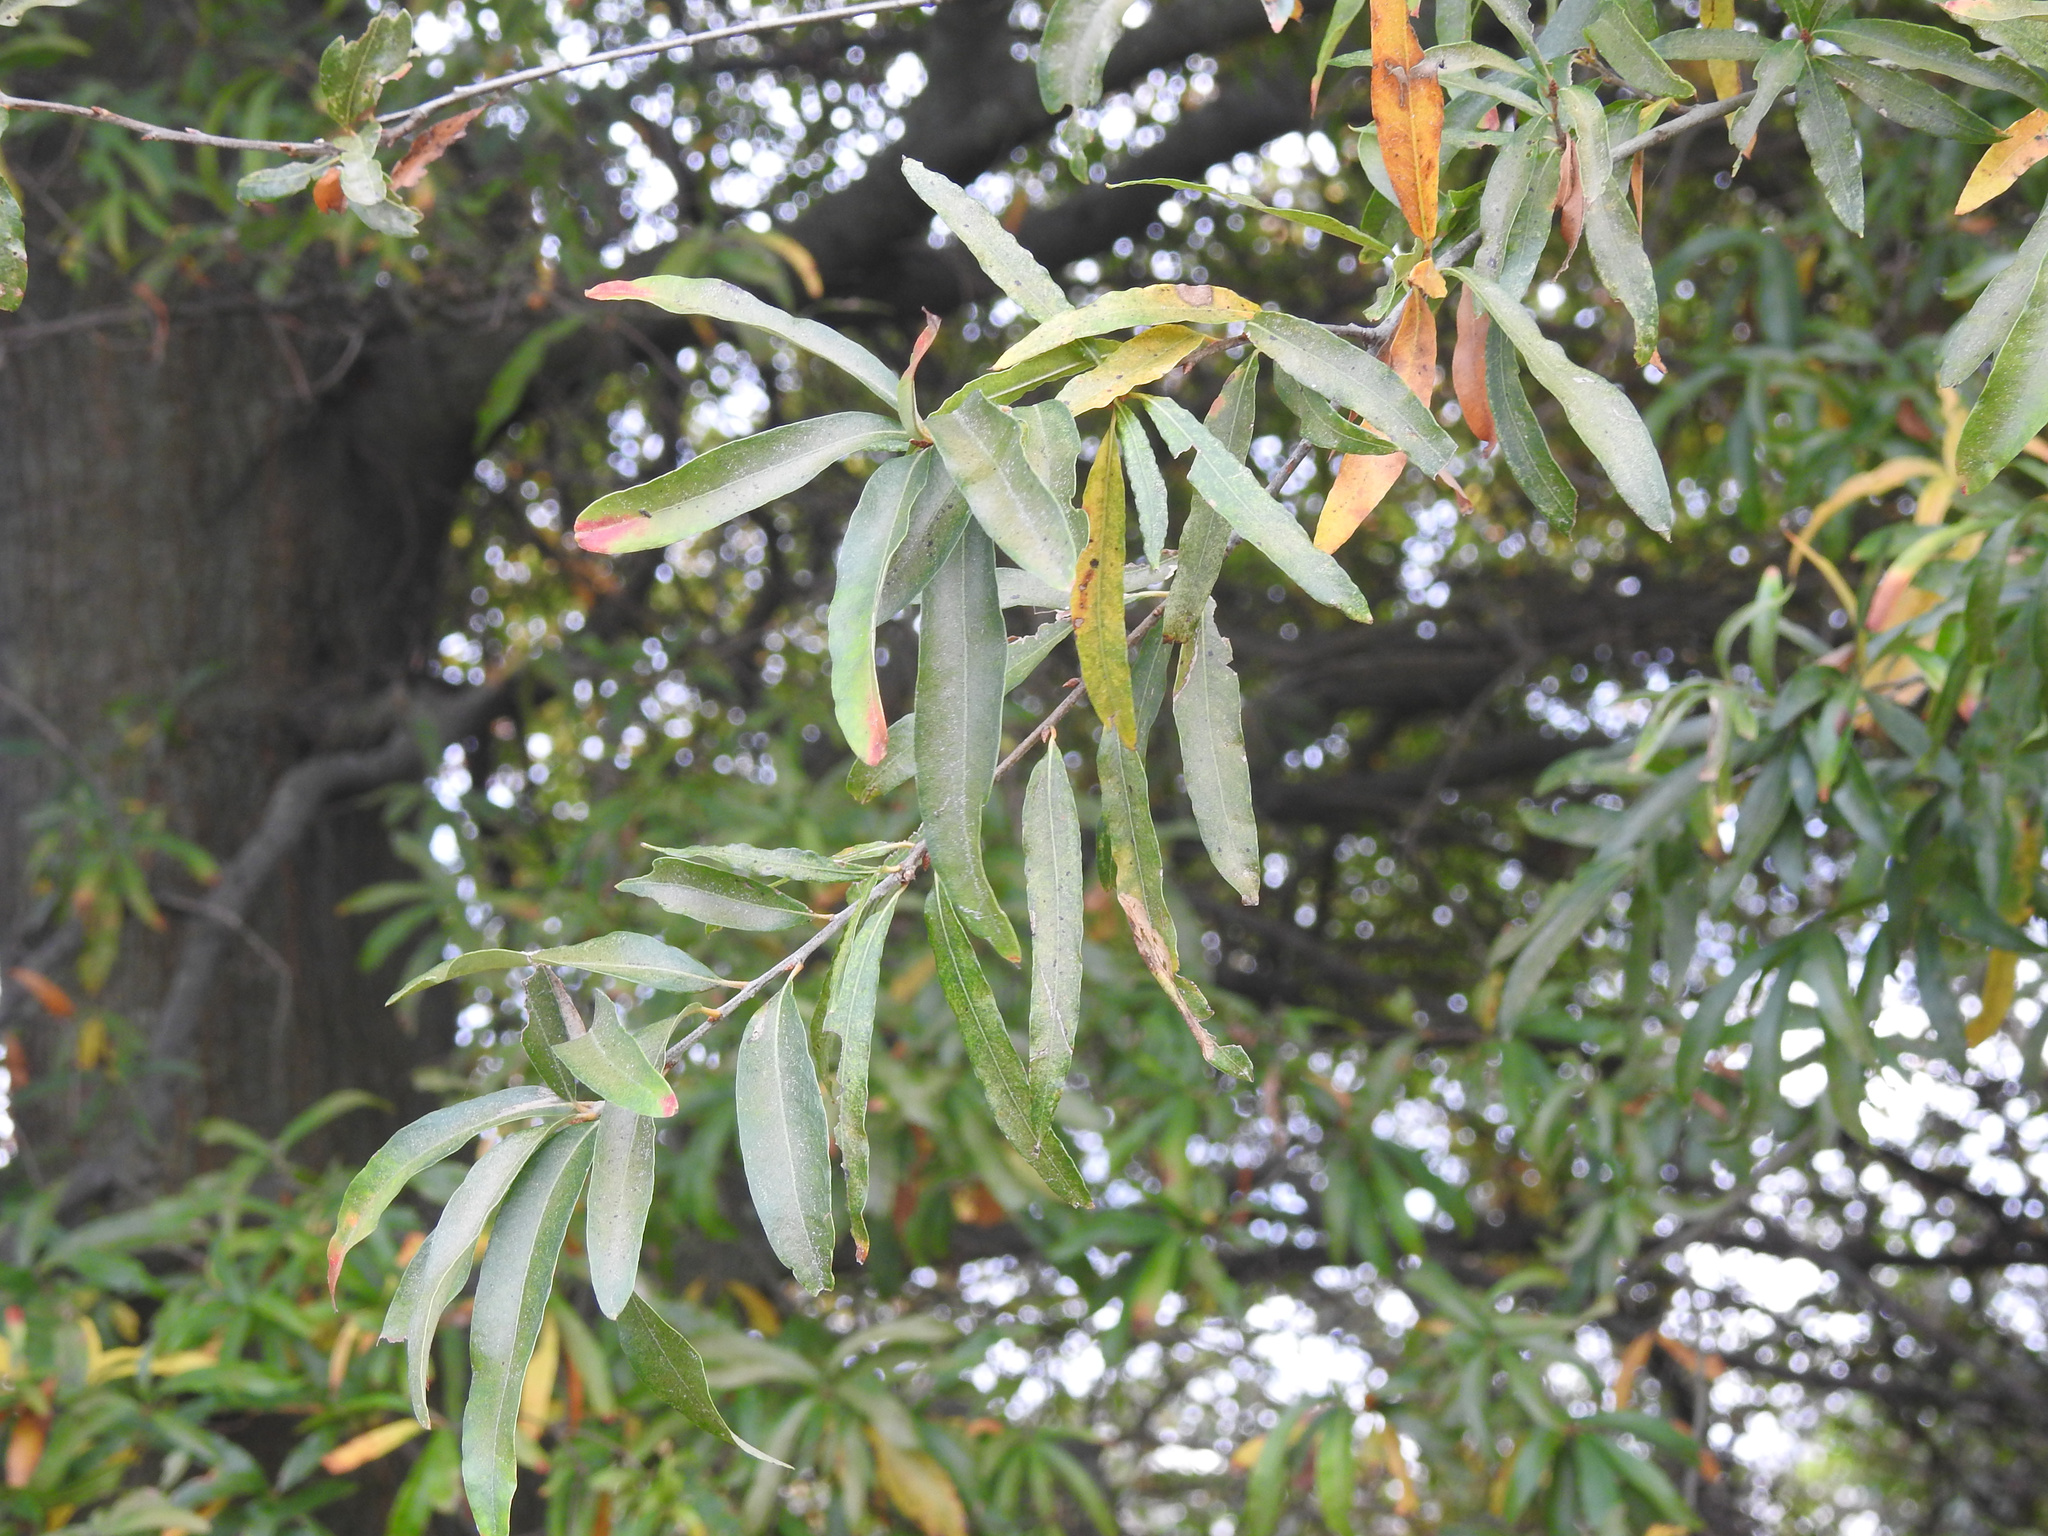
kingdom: Plantae
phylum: Tracheophyta
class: Magnoliopsida
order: Fagales
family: Fagaceae
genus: Quercus
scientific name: Quercus phellos
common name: Willow oak
